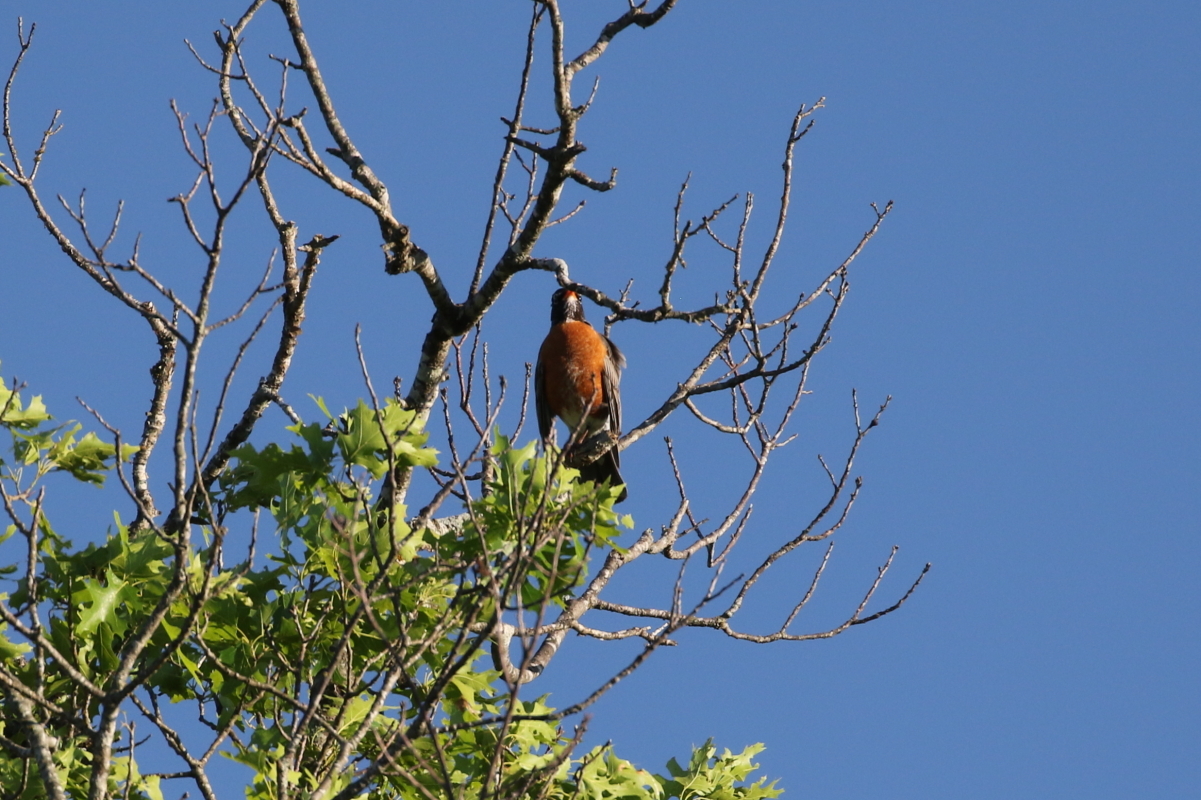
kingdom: Animalia
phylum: Chordata
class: Aves
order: Passeriformes
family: Turdidae
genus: Turdus
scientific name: Turdus migratorius
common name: American robin
